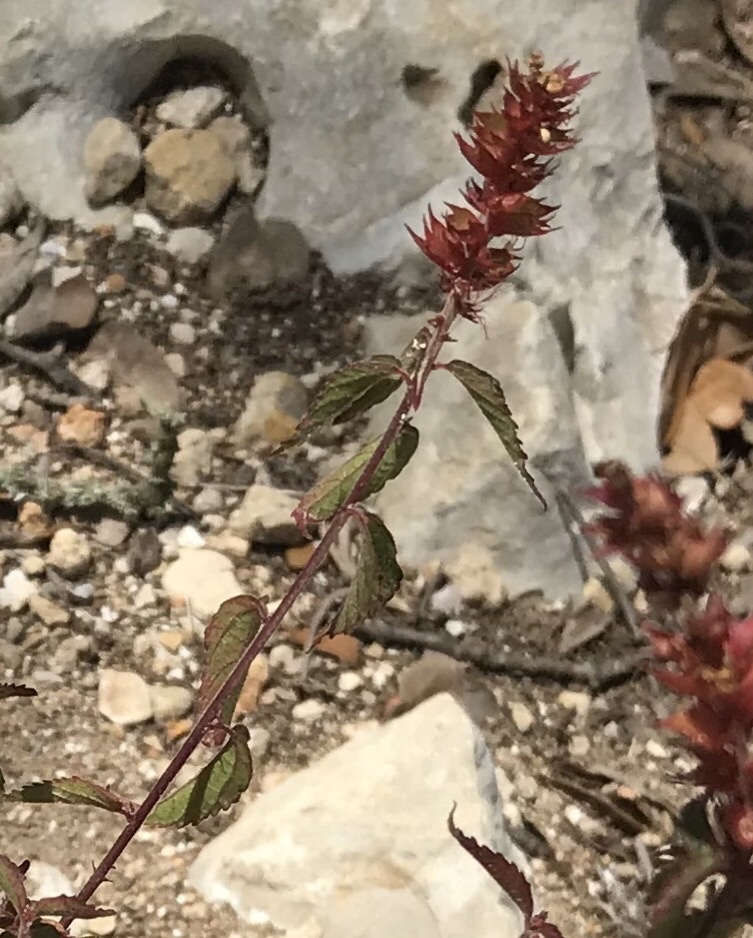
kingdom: Plantae
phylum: Tracheophyta
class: Magnoliopsida
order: Malpighiales
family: Euphorbiaceae
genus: Acalypha
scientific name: Acalypha phleoides
